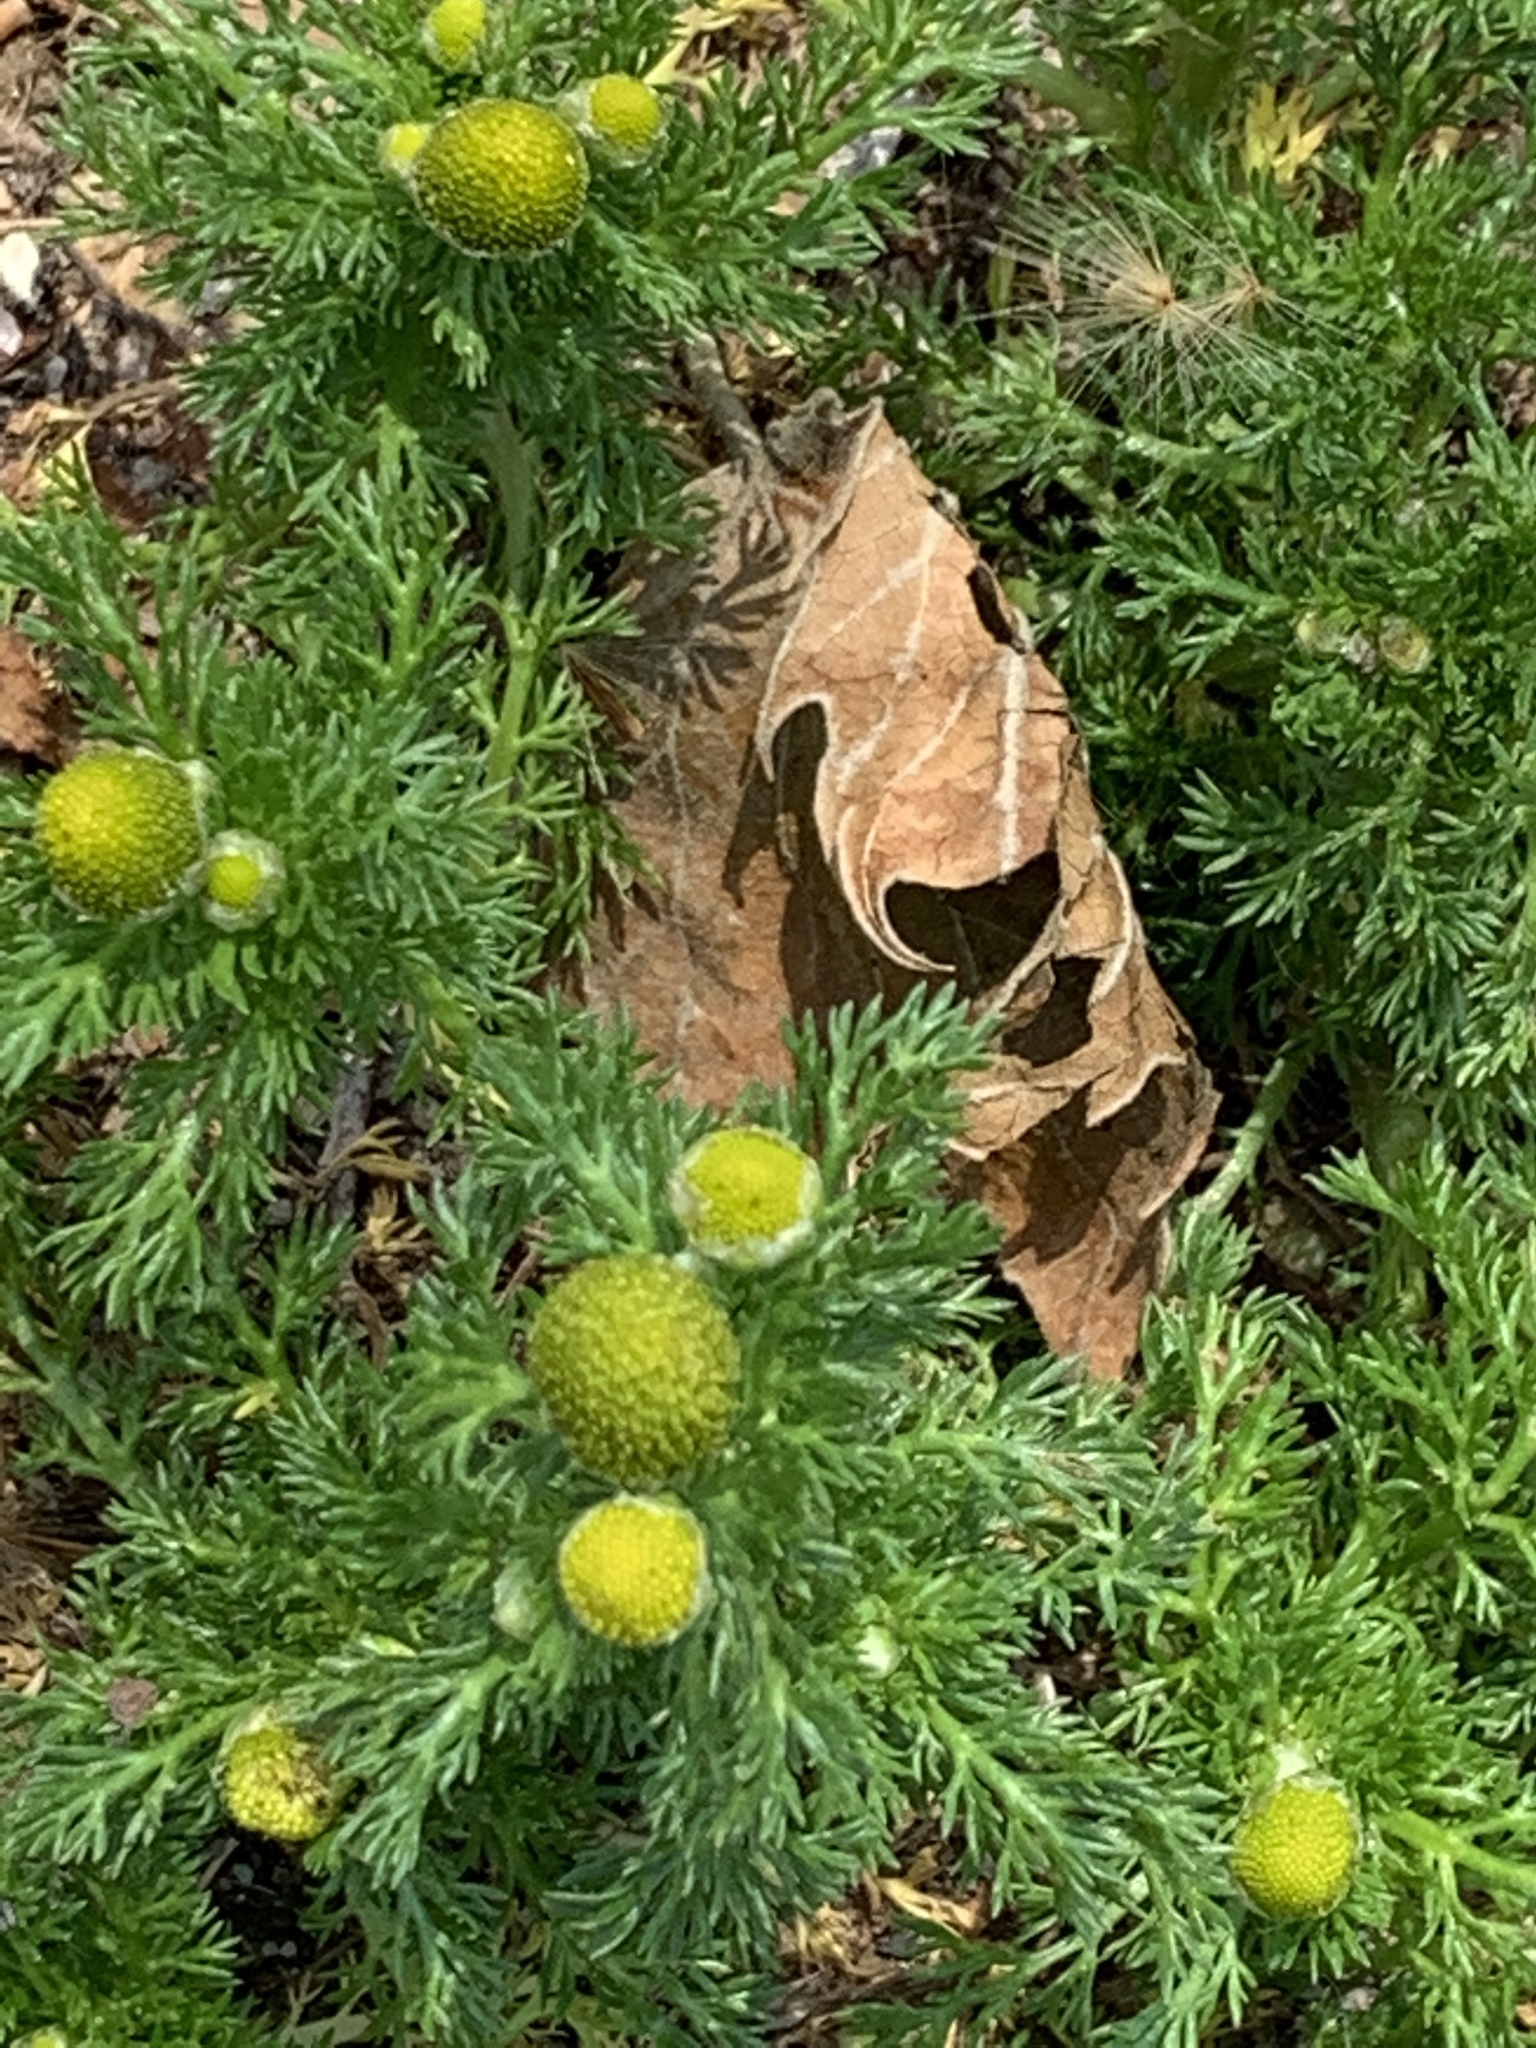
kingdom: Plantae
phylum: Tracheophyta
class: Magnoliopsida
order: Asterales
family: Asteraceae
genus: Matricaria
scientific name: Matricaria discoidea
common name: Disc mayweed
